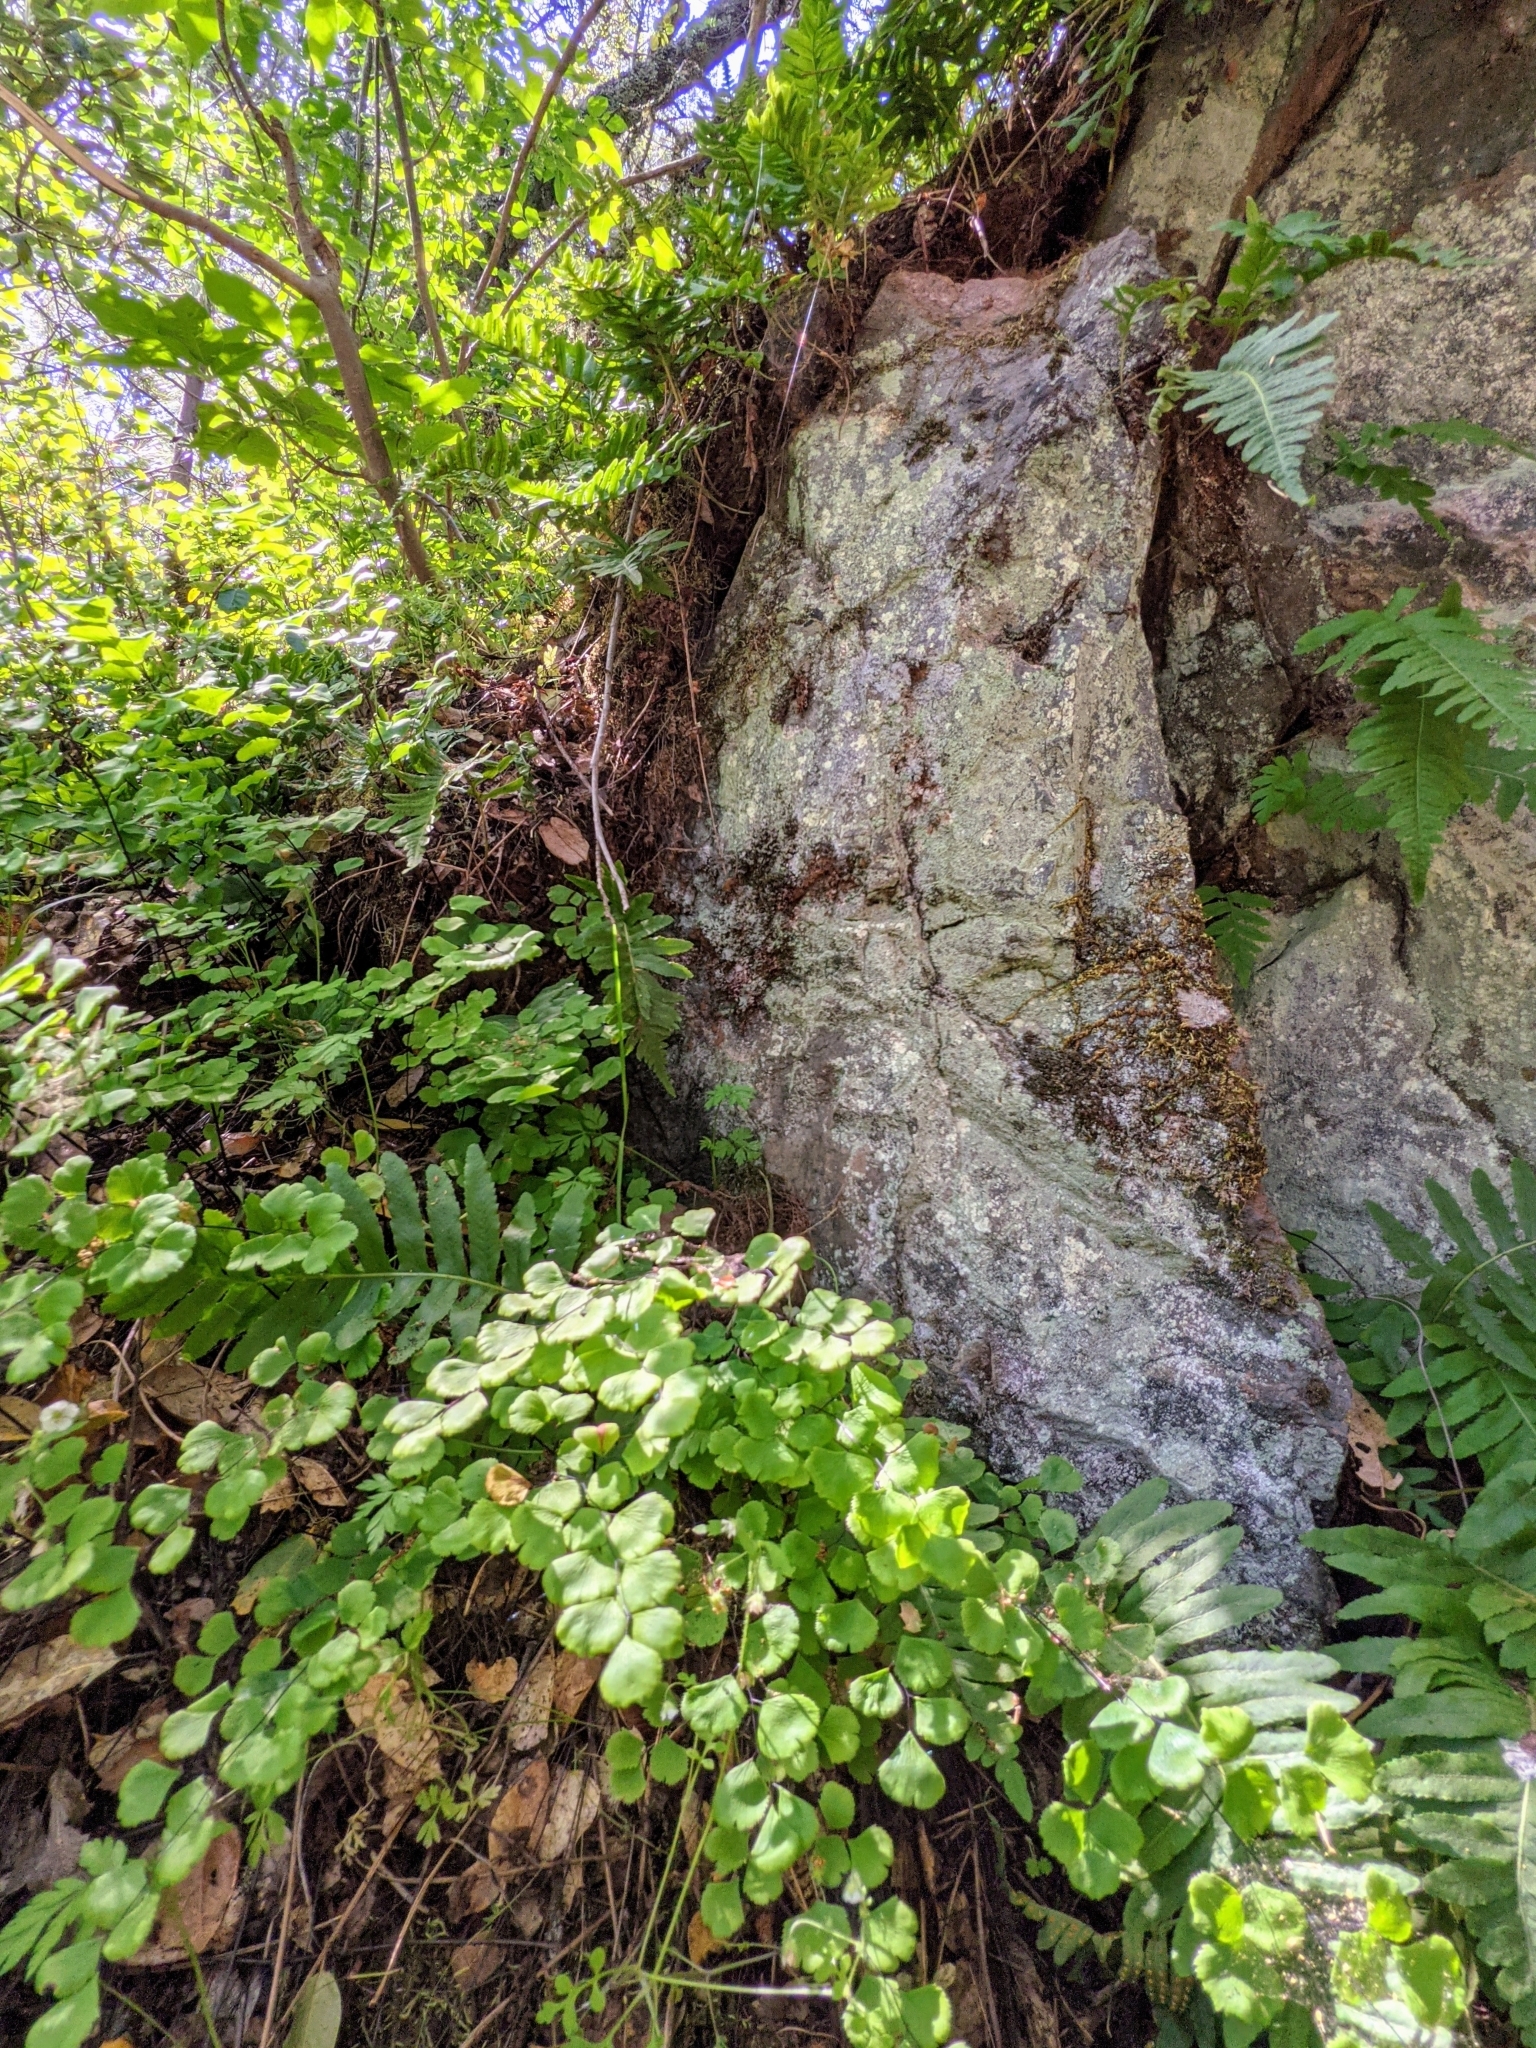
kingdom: Plantae
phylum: Tracheophyta
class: Polypodiopsida
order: Polypodiales
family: Pteridaceae
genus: Adiantum
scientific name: Adiantum jordanii
